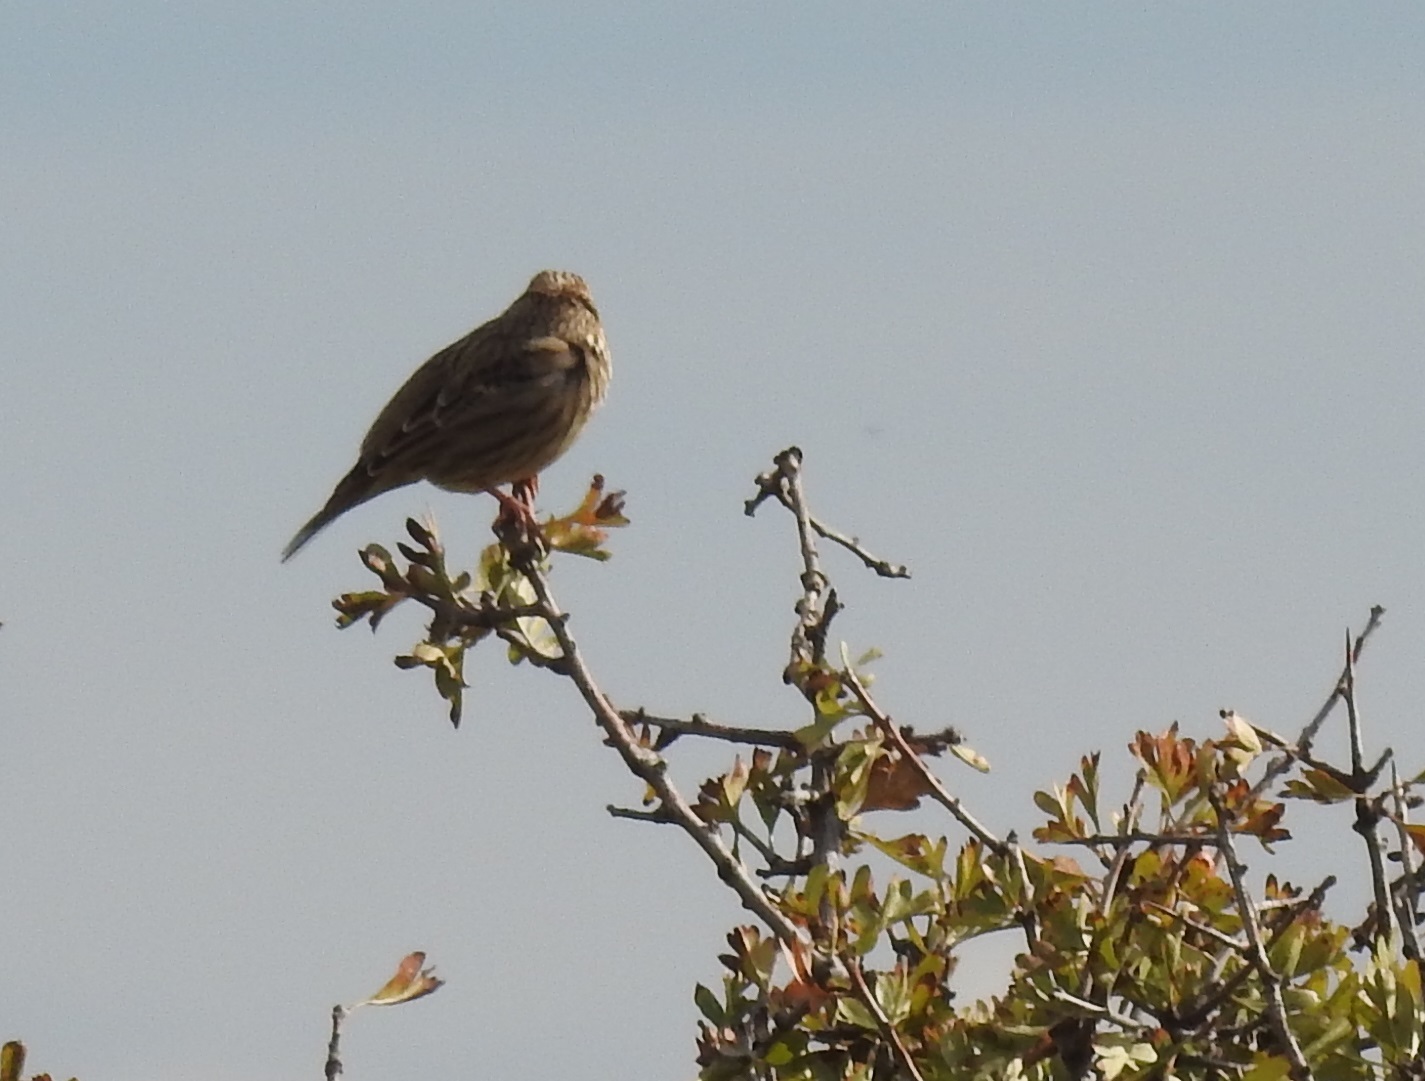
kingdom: Animalia
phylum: Chordata
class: Aves
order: Passeriformes
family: Fringillidae
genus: Linaria
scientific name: Linaria cannabina
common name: Common linnet
